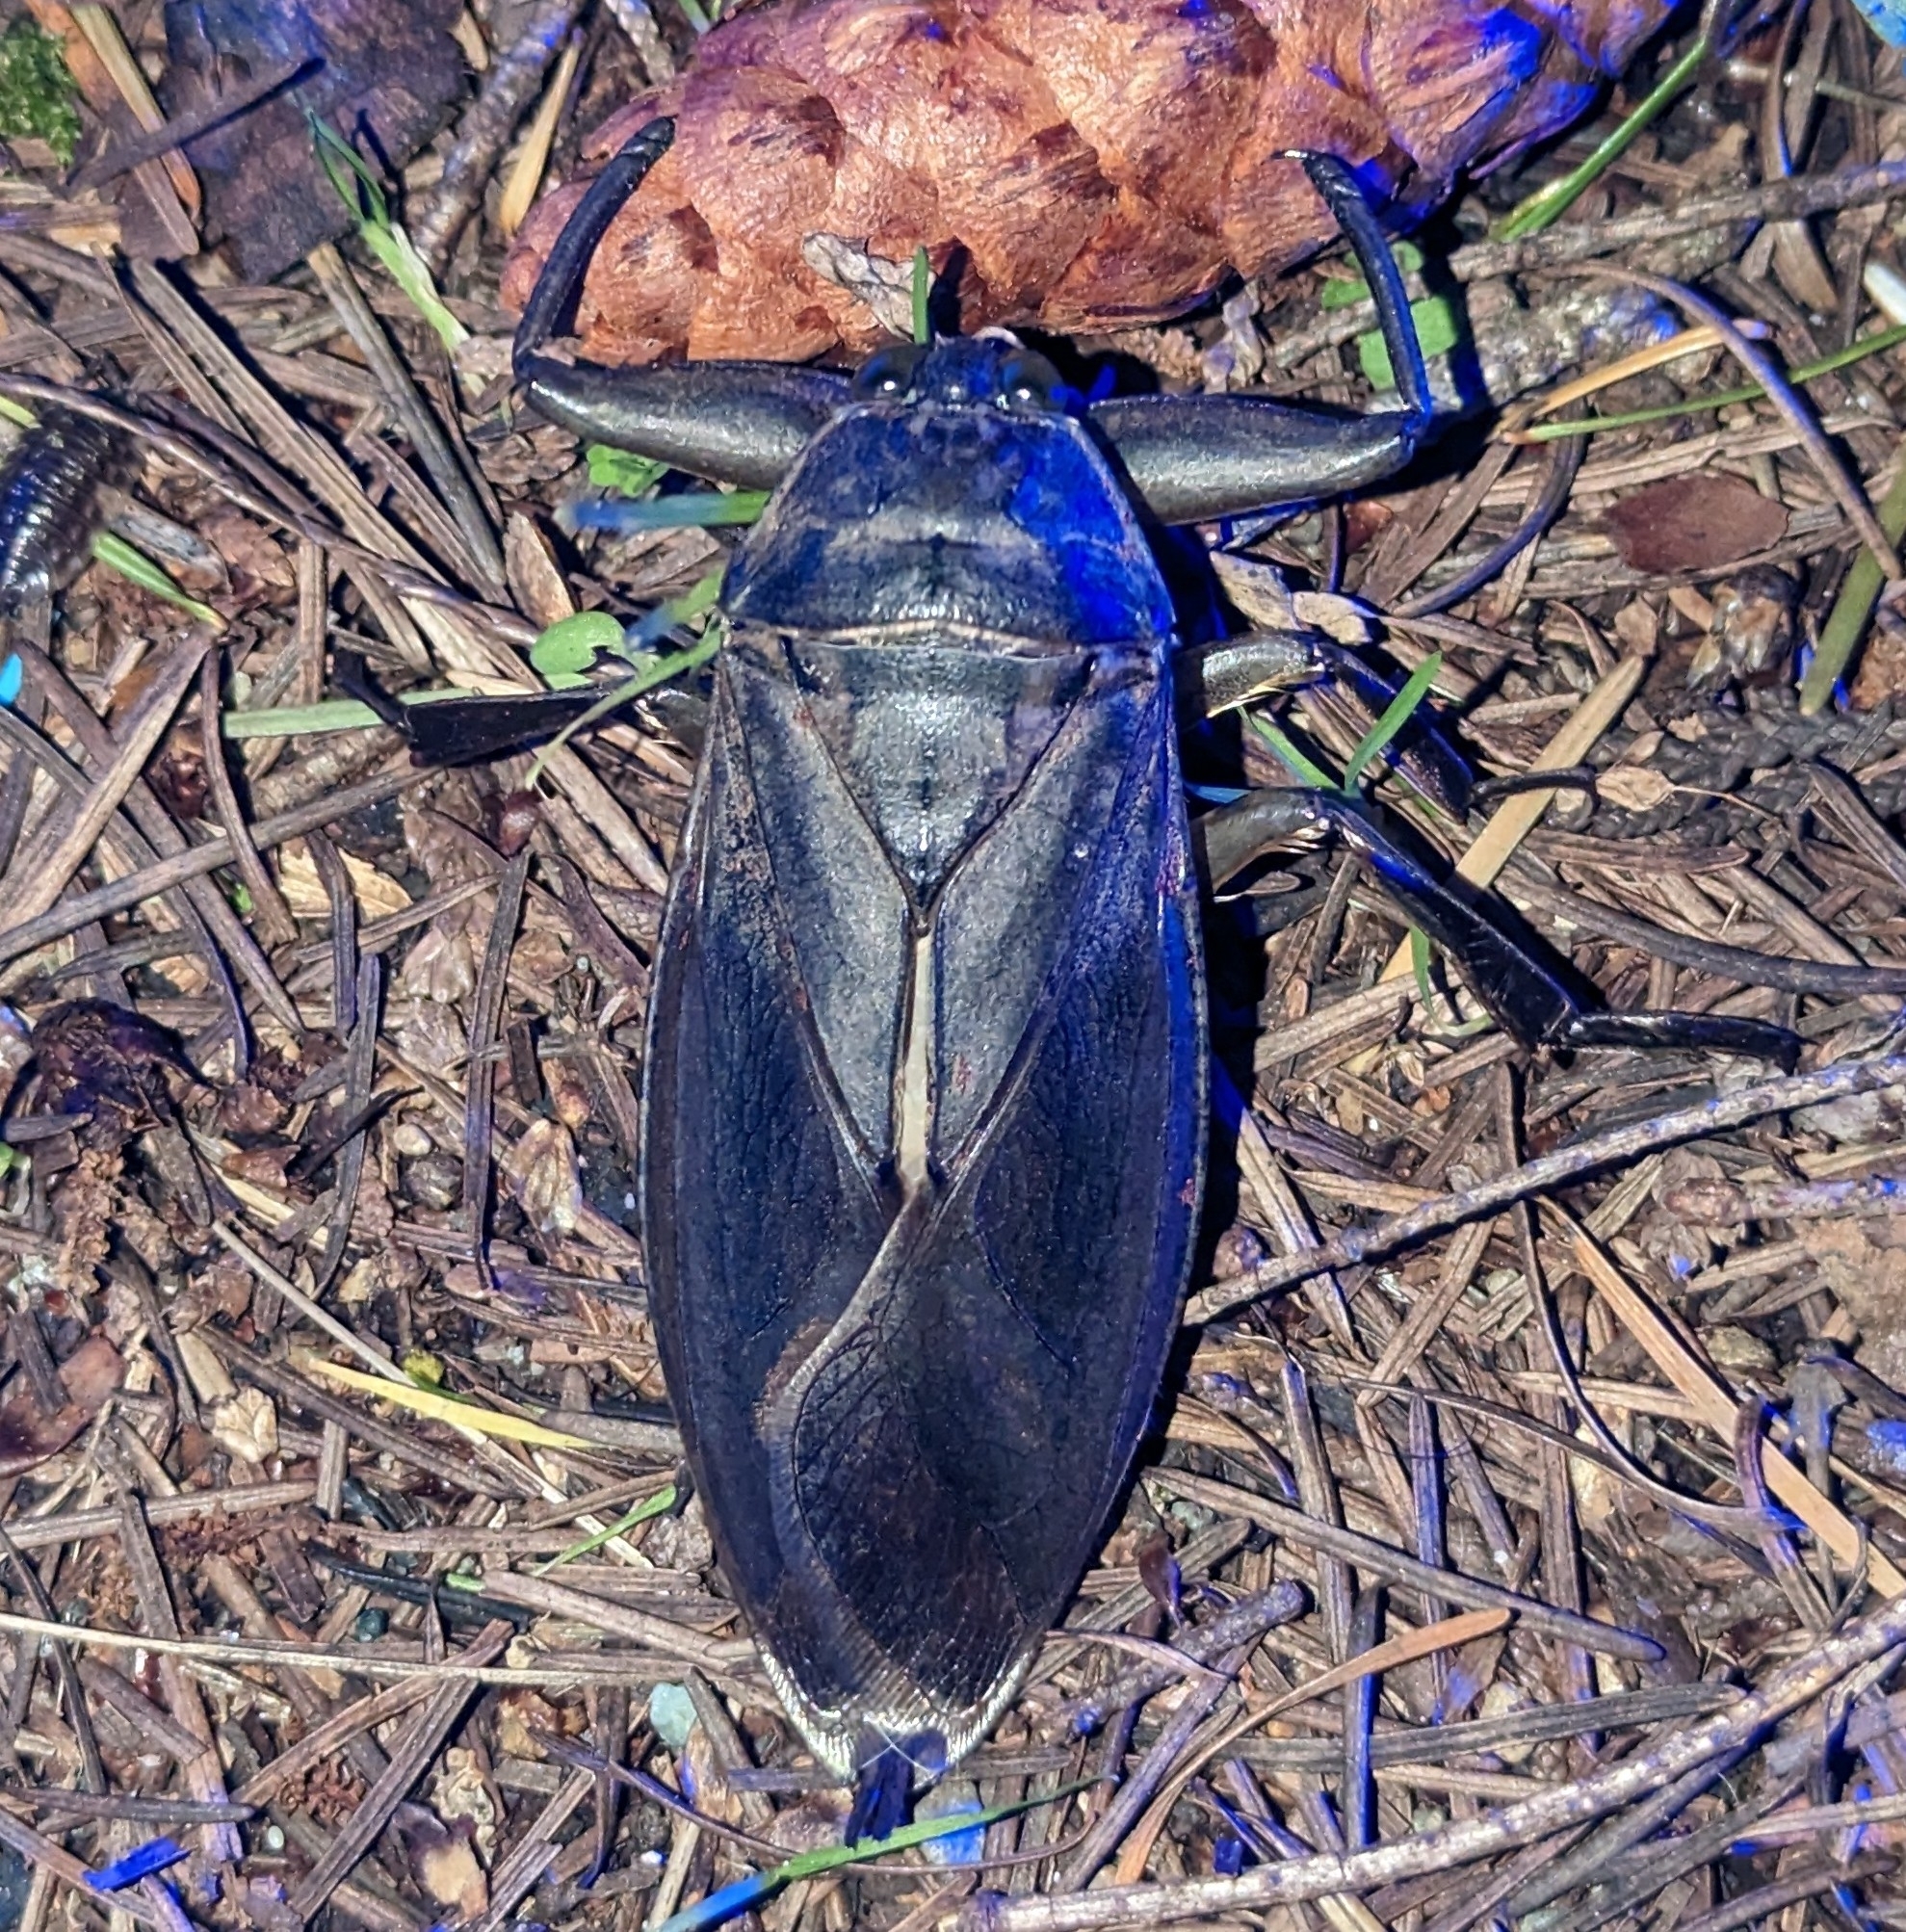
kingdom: Animalia
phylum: Arthropoda
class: Insecta
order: Hemiptera
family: Belostomatidae
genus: Lethocerus
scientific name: Lethocerus americanus
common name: Giant water bug
